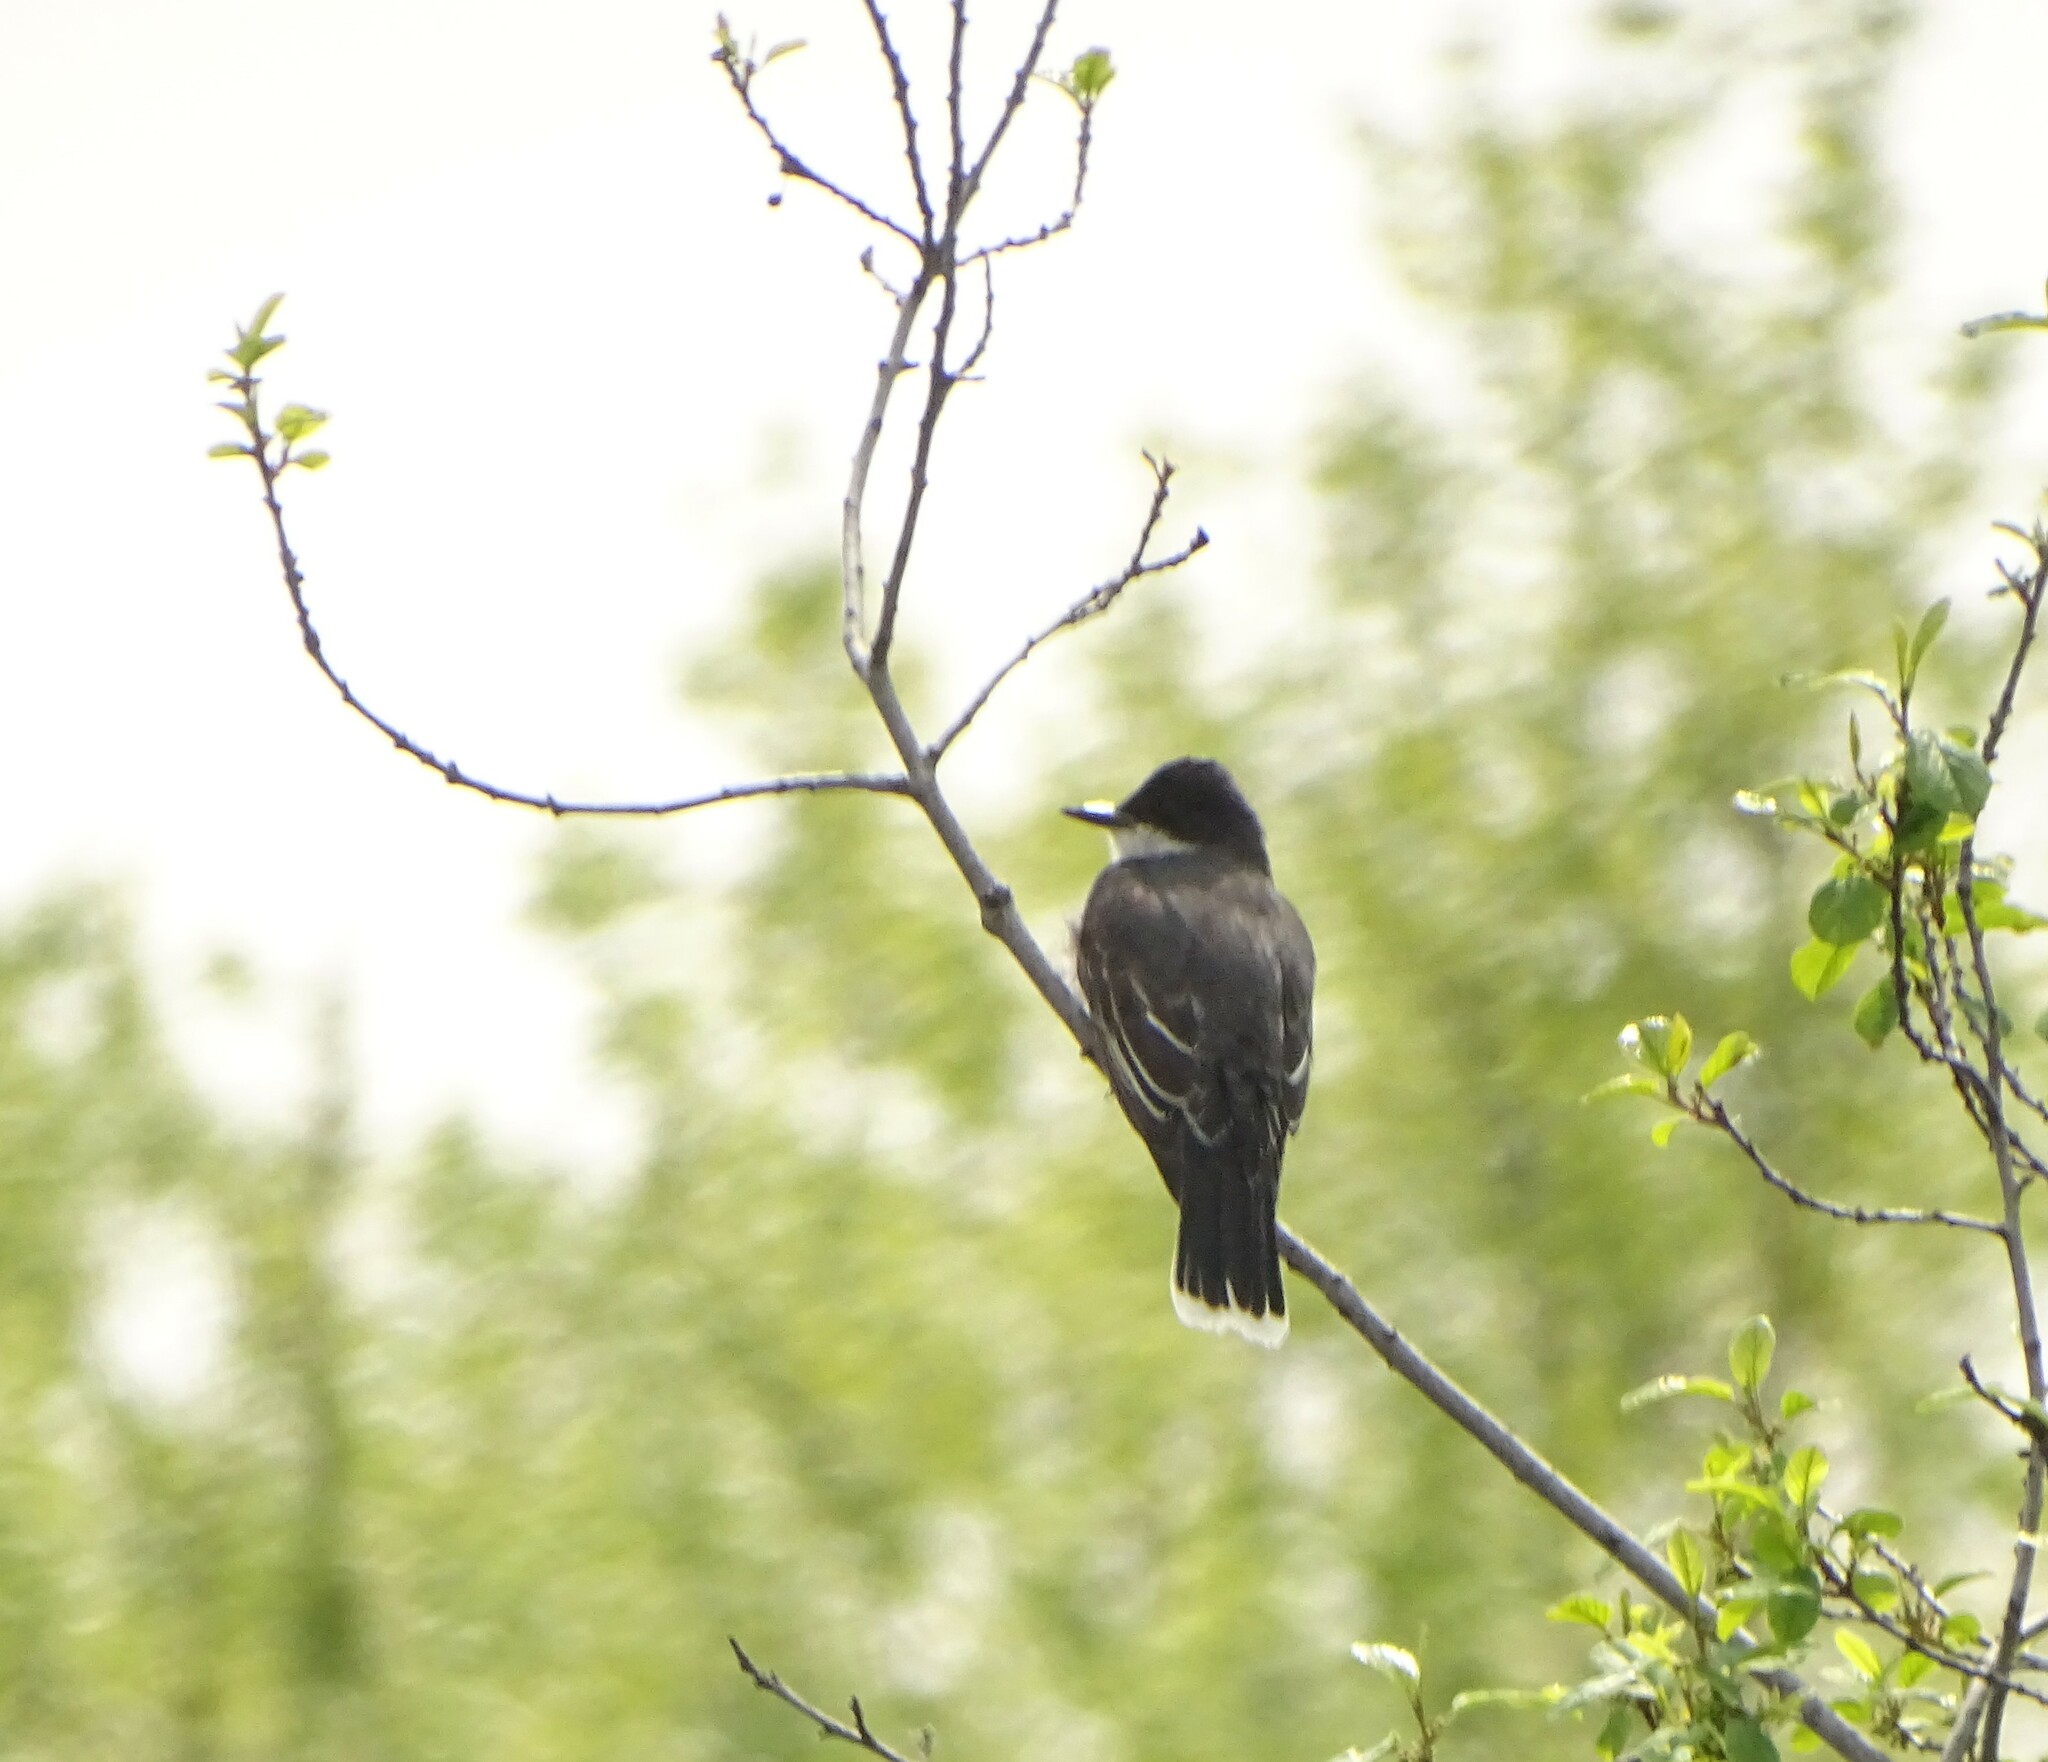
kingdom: Animalia
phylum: Chordata
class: Aves
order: Passeriformes
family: Tyrannidae
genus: Tyrannus
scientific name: Tyrannus tyrannus
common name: Eastern kingbird
